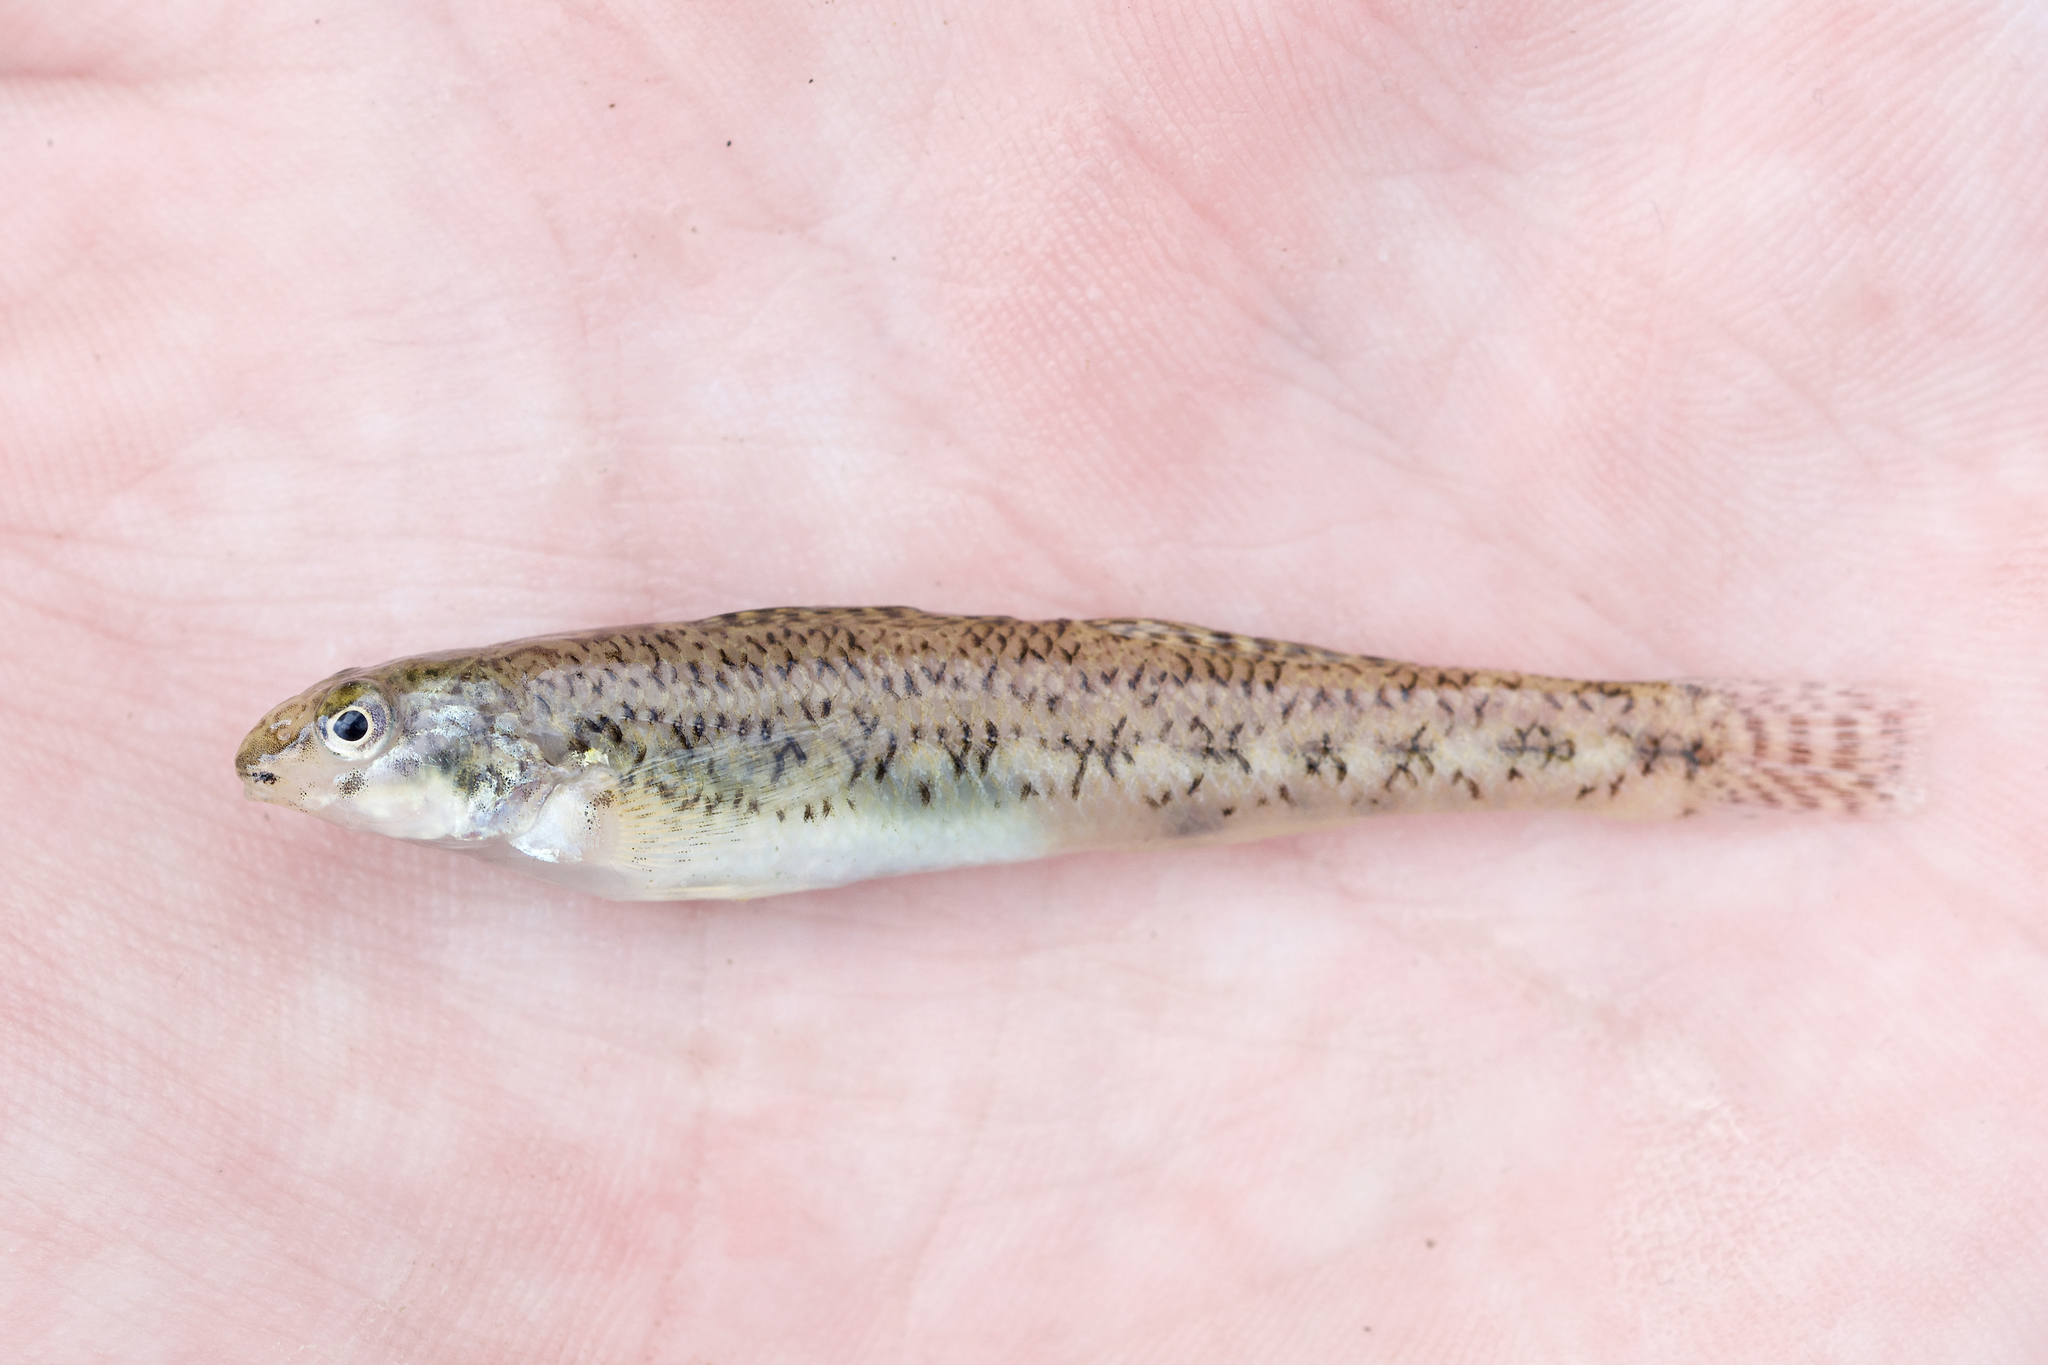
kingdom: Animalia
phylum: Chordata
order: Perciformes
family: Percidae
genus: Etheostoma
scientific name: Etheostoma nigrum
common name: Johnny darter
